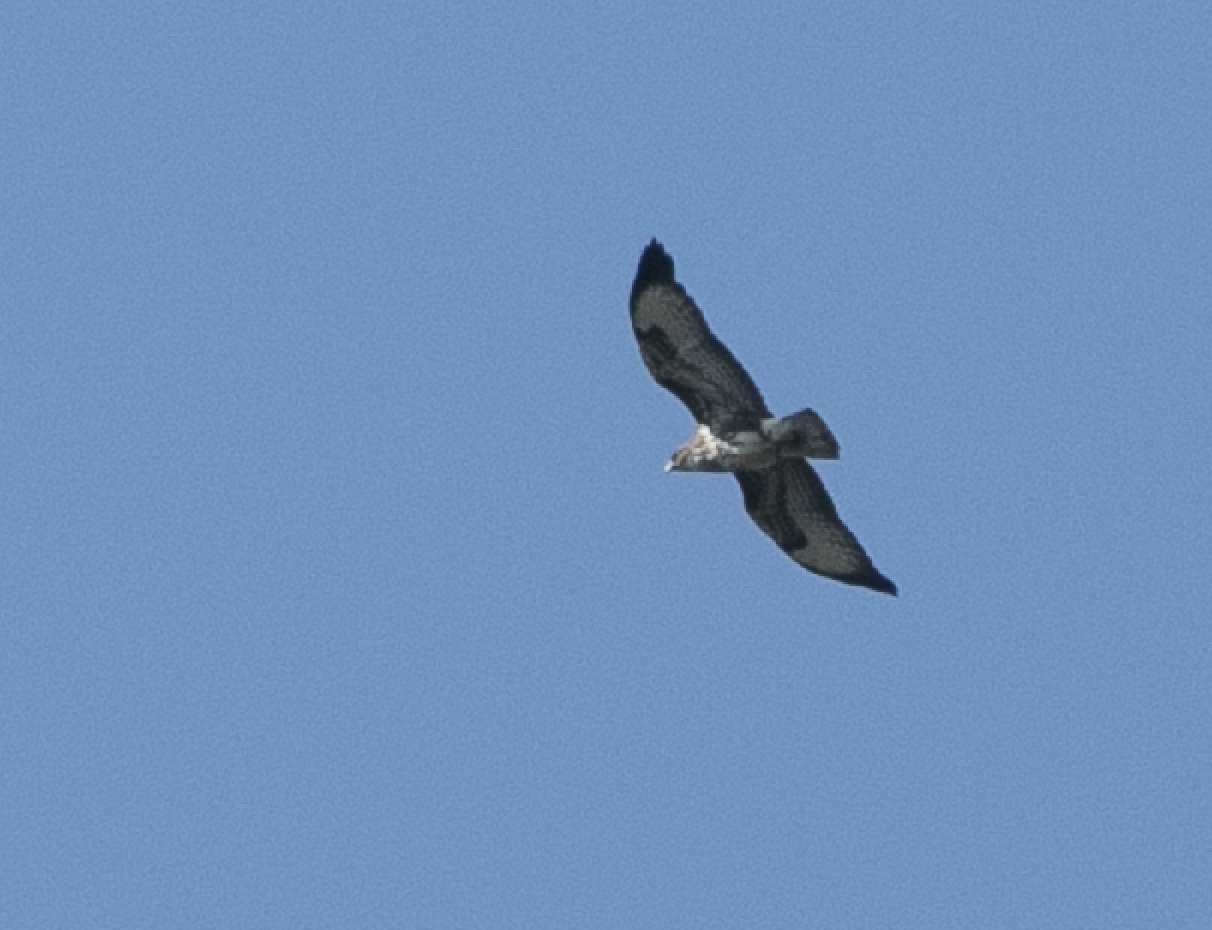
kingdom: Animalia
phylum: Chordata
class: Aves
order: Accipitriformes
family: Accipitridae
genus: Buteo
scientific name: Buteo buteo
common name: Common buzzard
